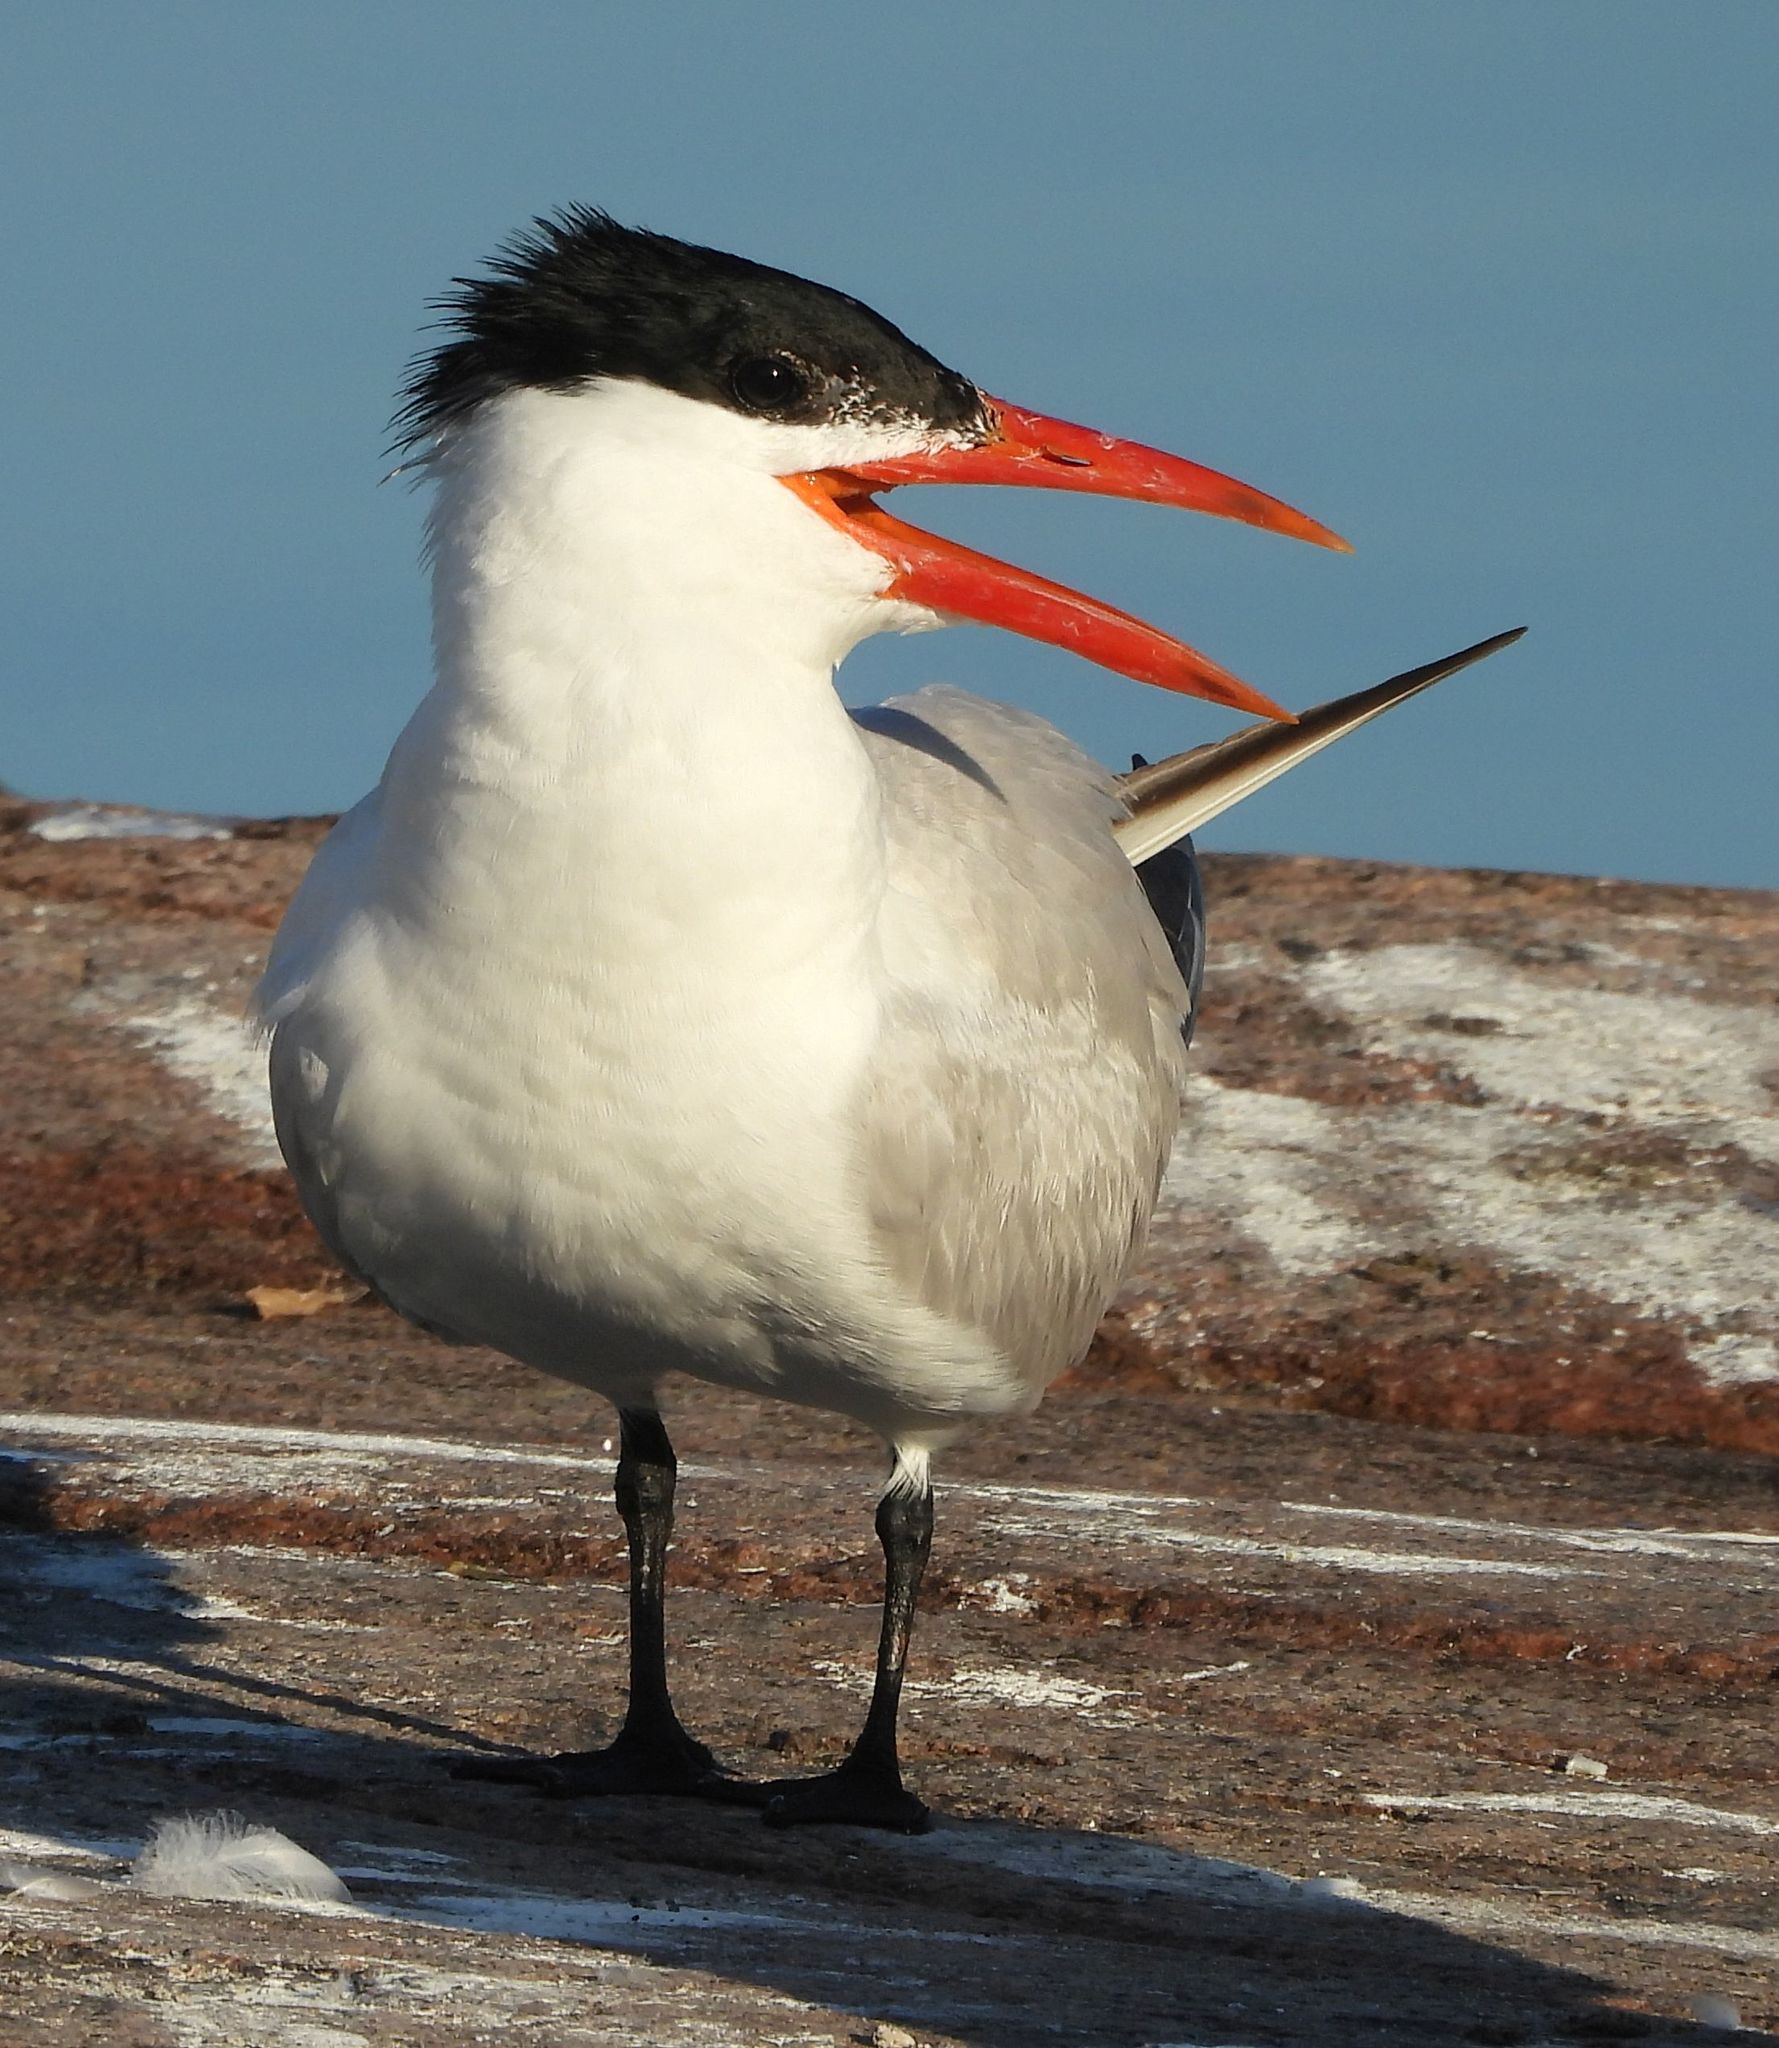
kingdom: Animalia
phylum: Chordata
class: Aves
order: Charadriiformes
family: Laridae
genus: Hydroprogne
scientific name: Hydroprogne caspia
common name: Caspian tern
